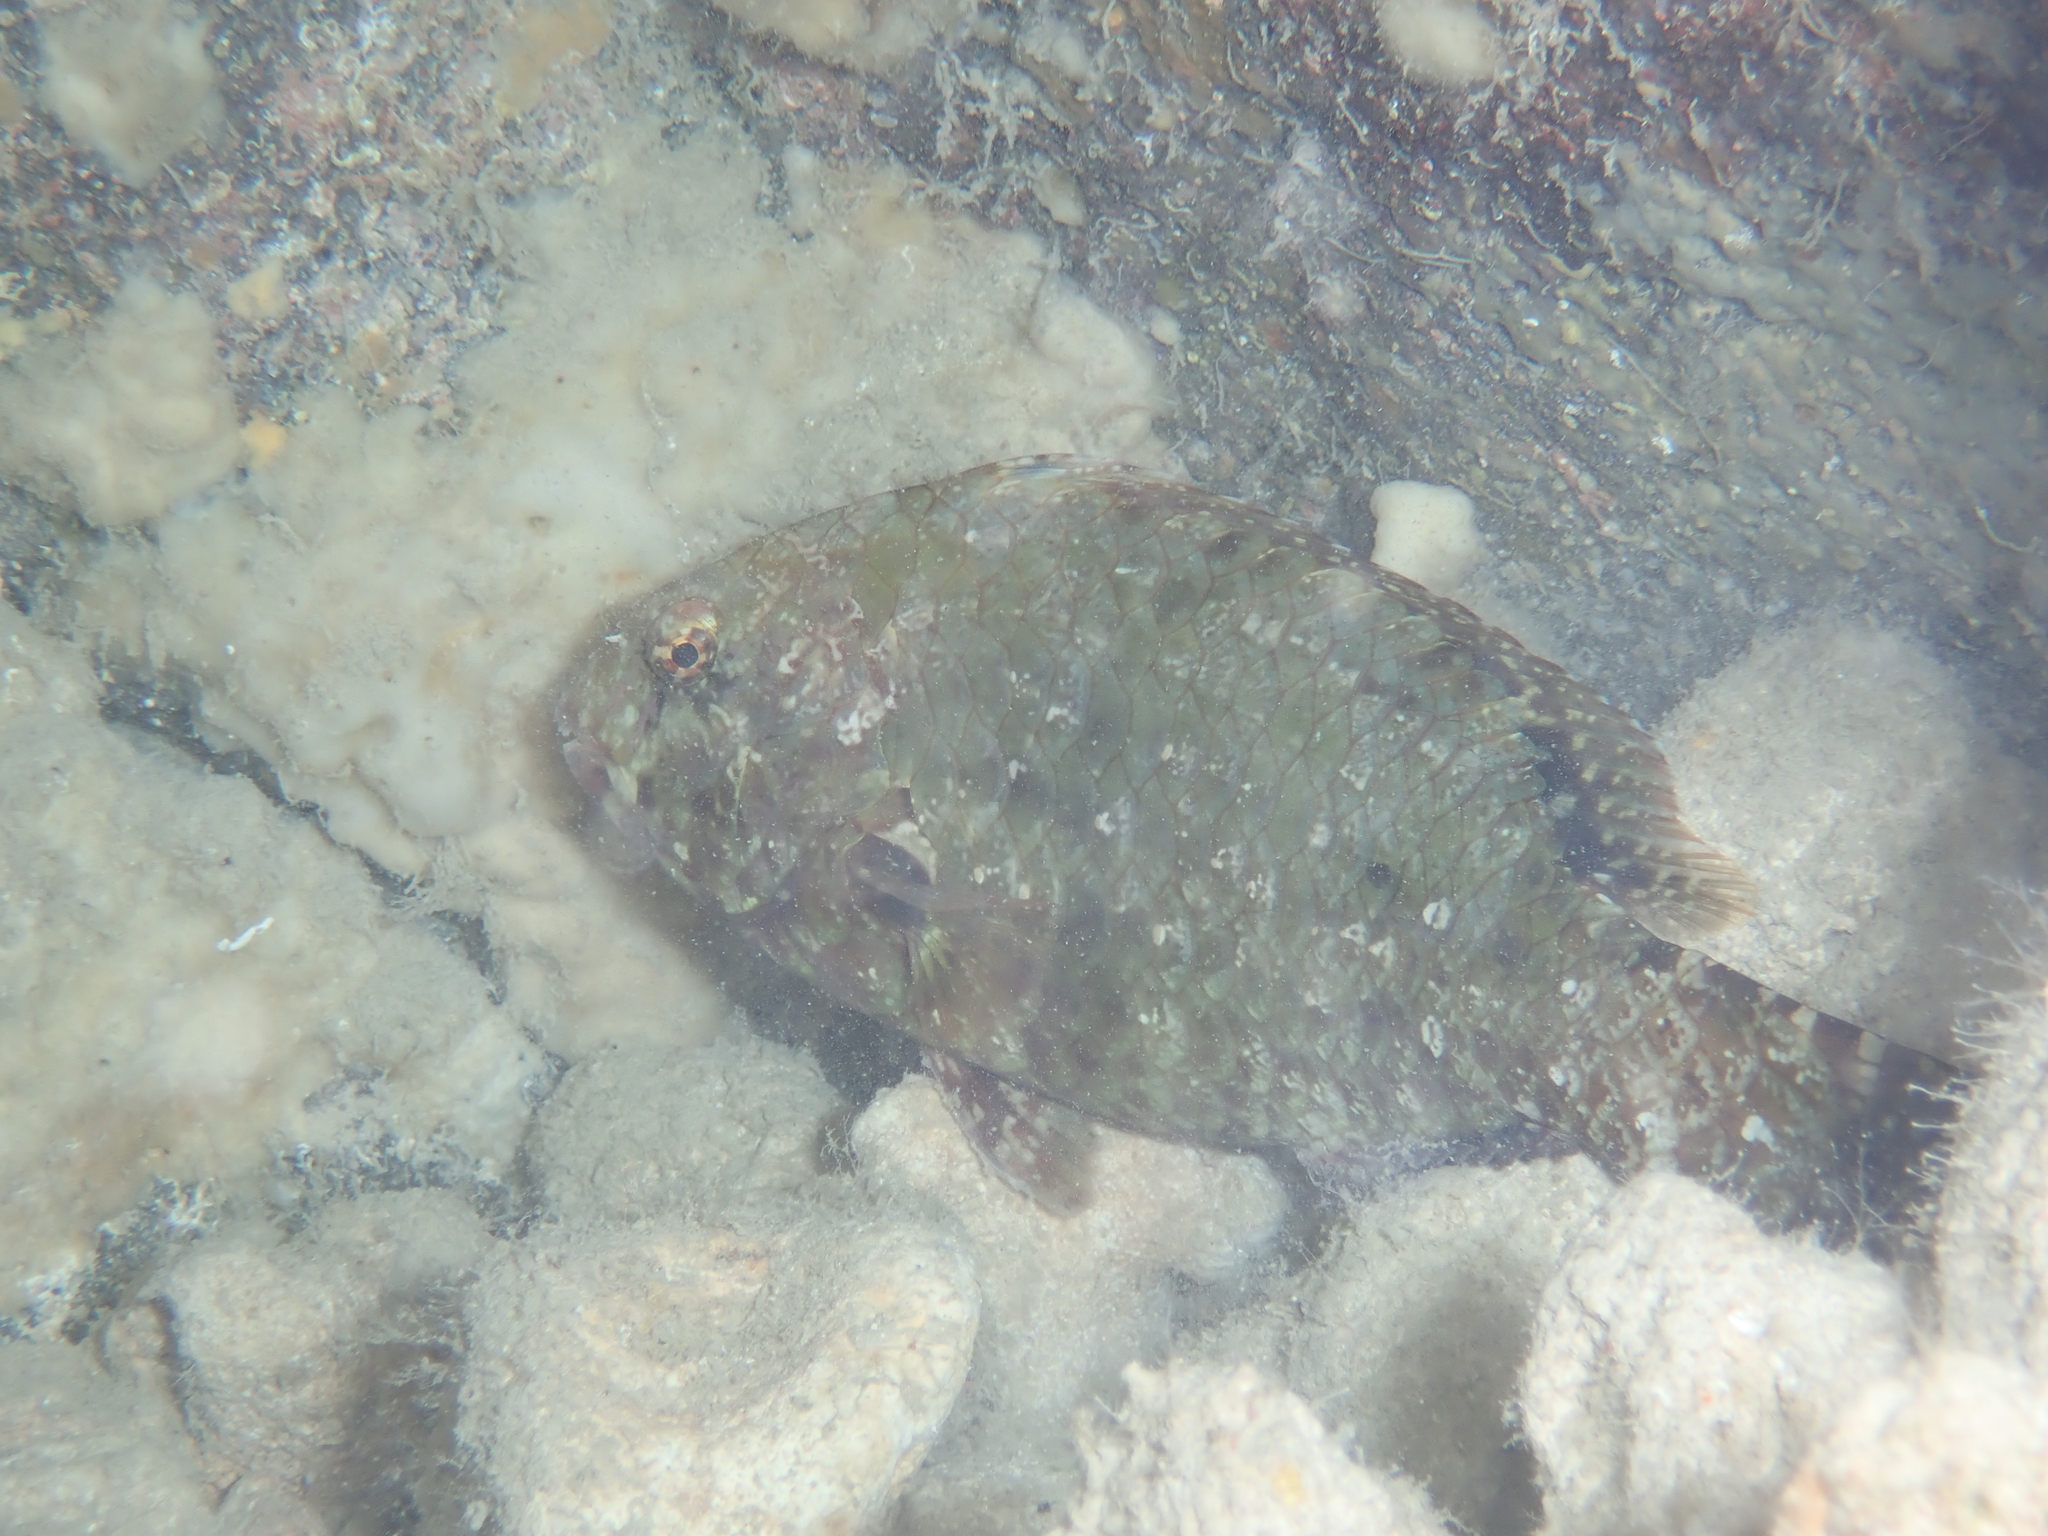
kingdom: Animalia
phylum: Chordata
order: Perciformes
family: Scaridae
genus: Calotomus
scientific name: Calotomus carolinus
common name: Bucktooth
